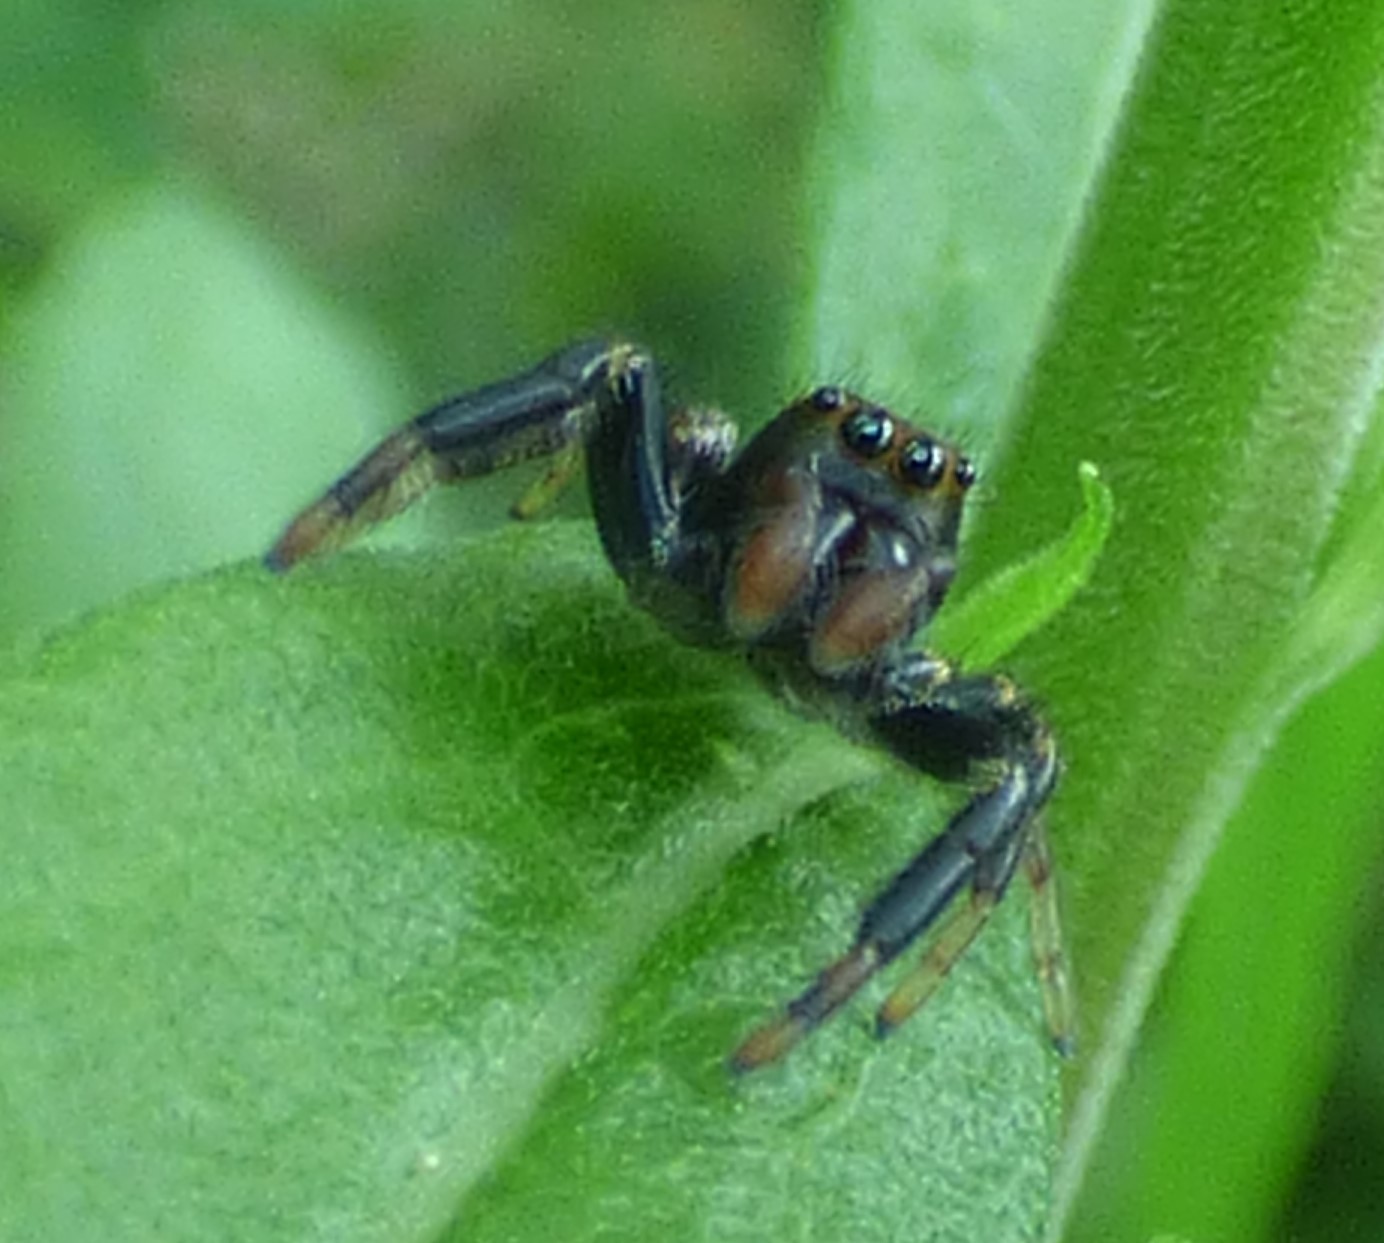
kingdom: Animalia
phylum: Arthropoda
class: Arachnida
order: Araneae
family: Salticidae
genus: Paraphidippus
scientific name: Paraphidippus aurantius
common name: Jumping spiders
